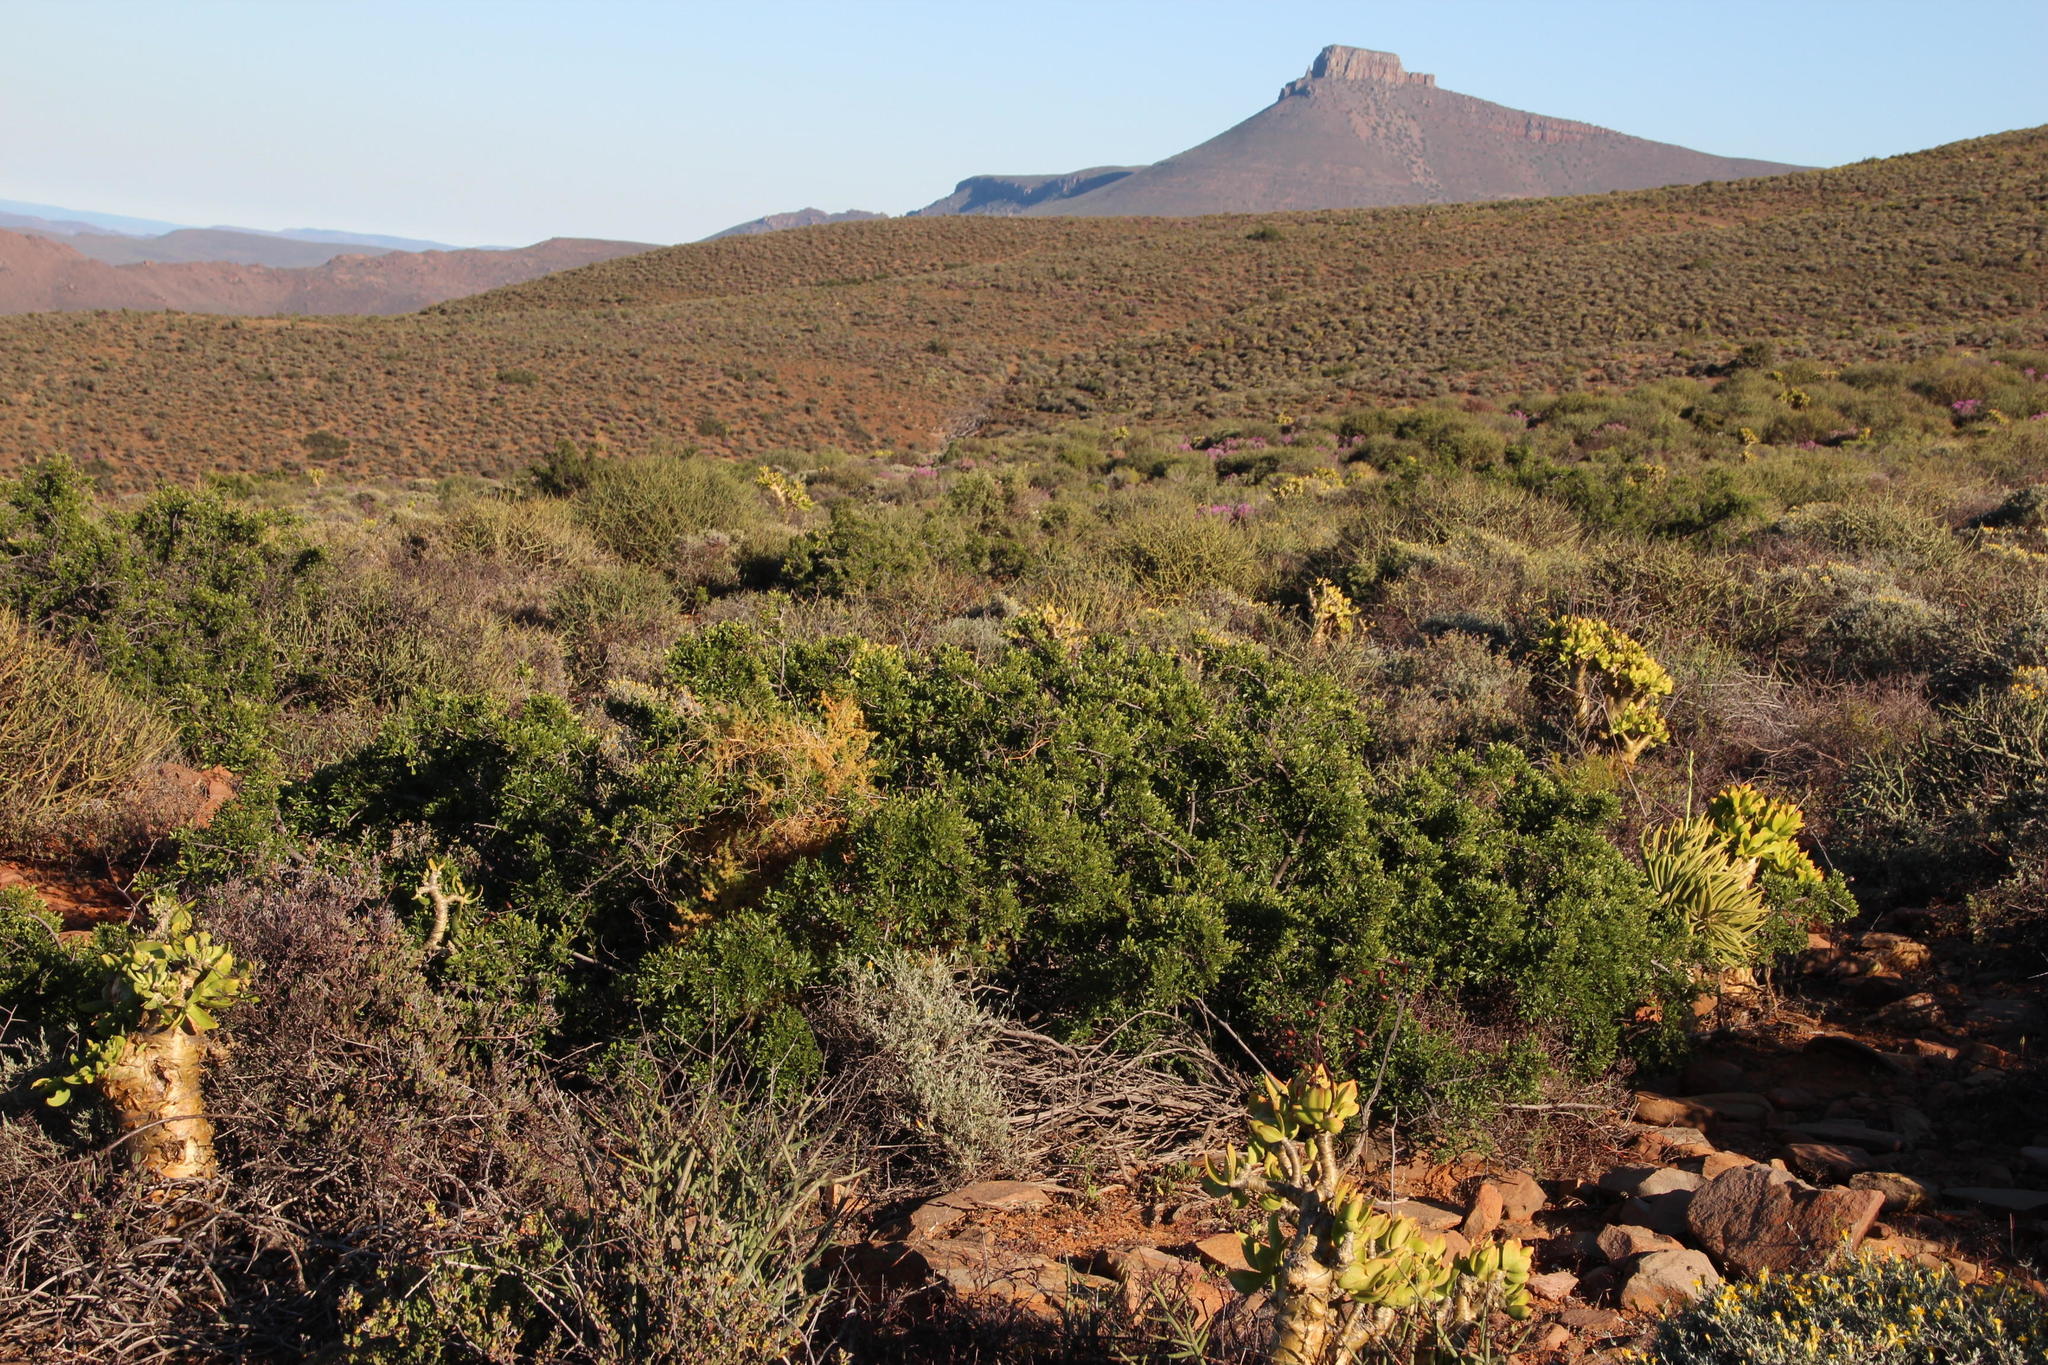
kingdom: Plantae
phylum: Tracheophyta
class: Magnoliopsida
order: Sapindales
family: Anacardiaceae
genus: Searsia
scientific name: Searsia undulata
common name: Namaqua kunibush
